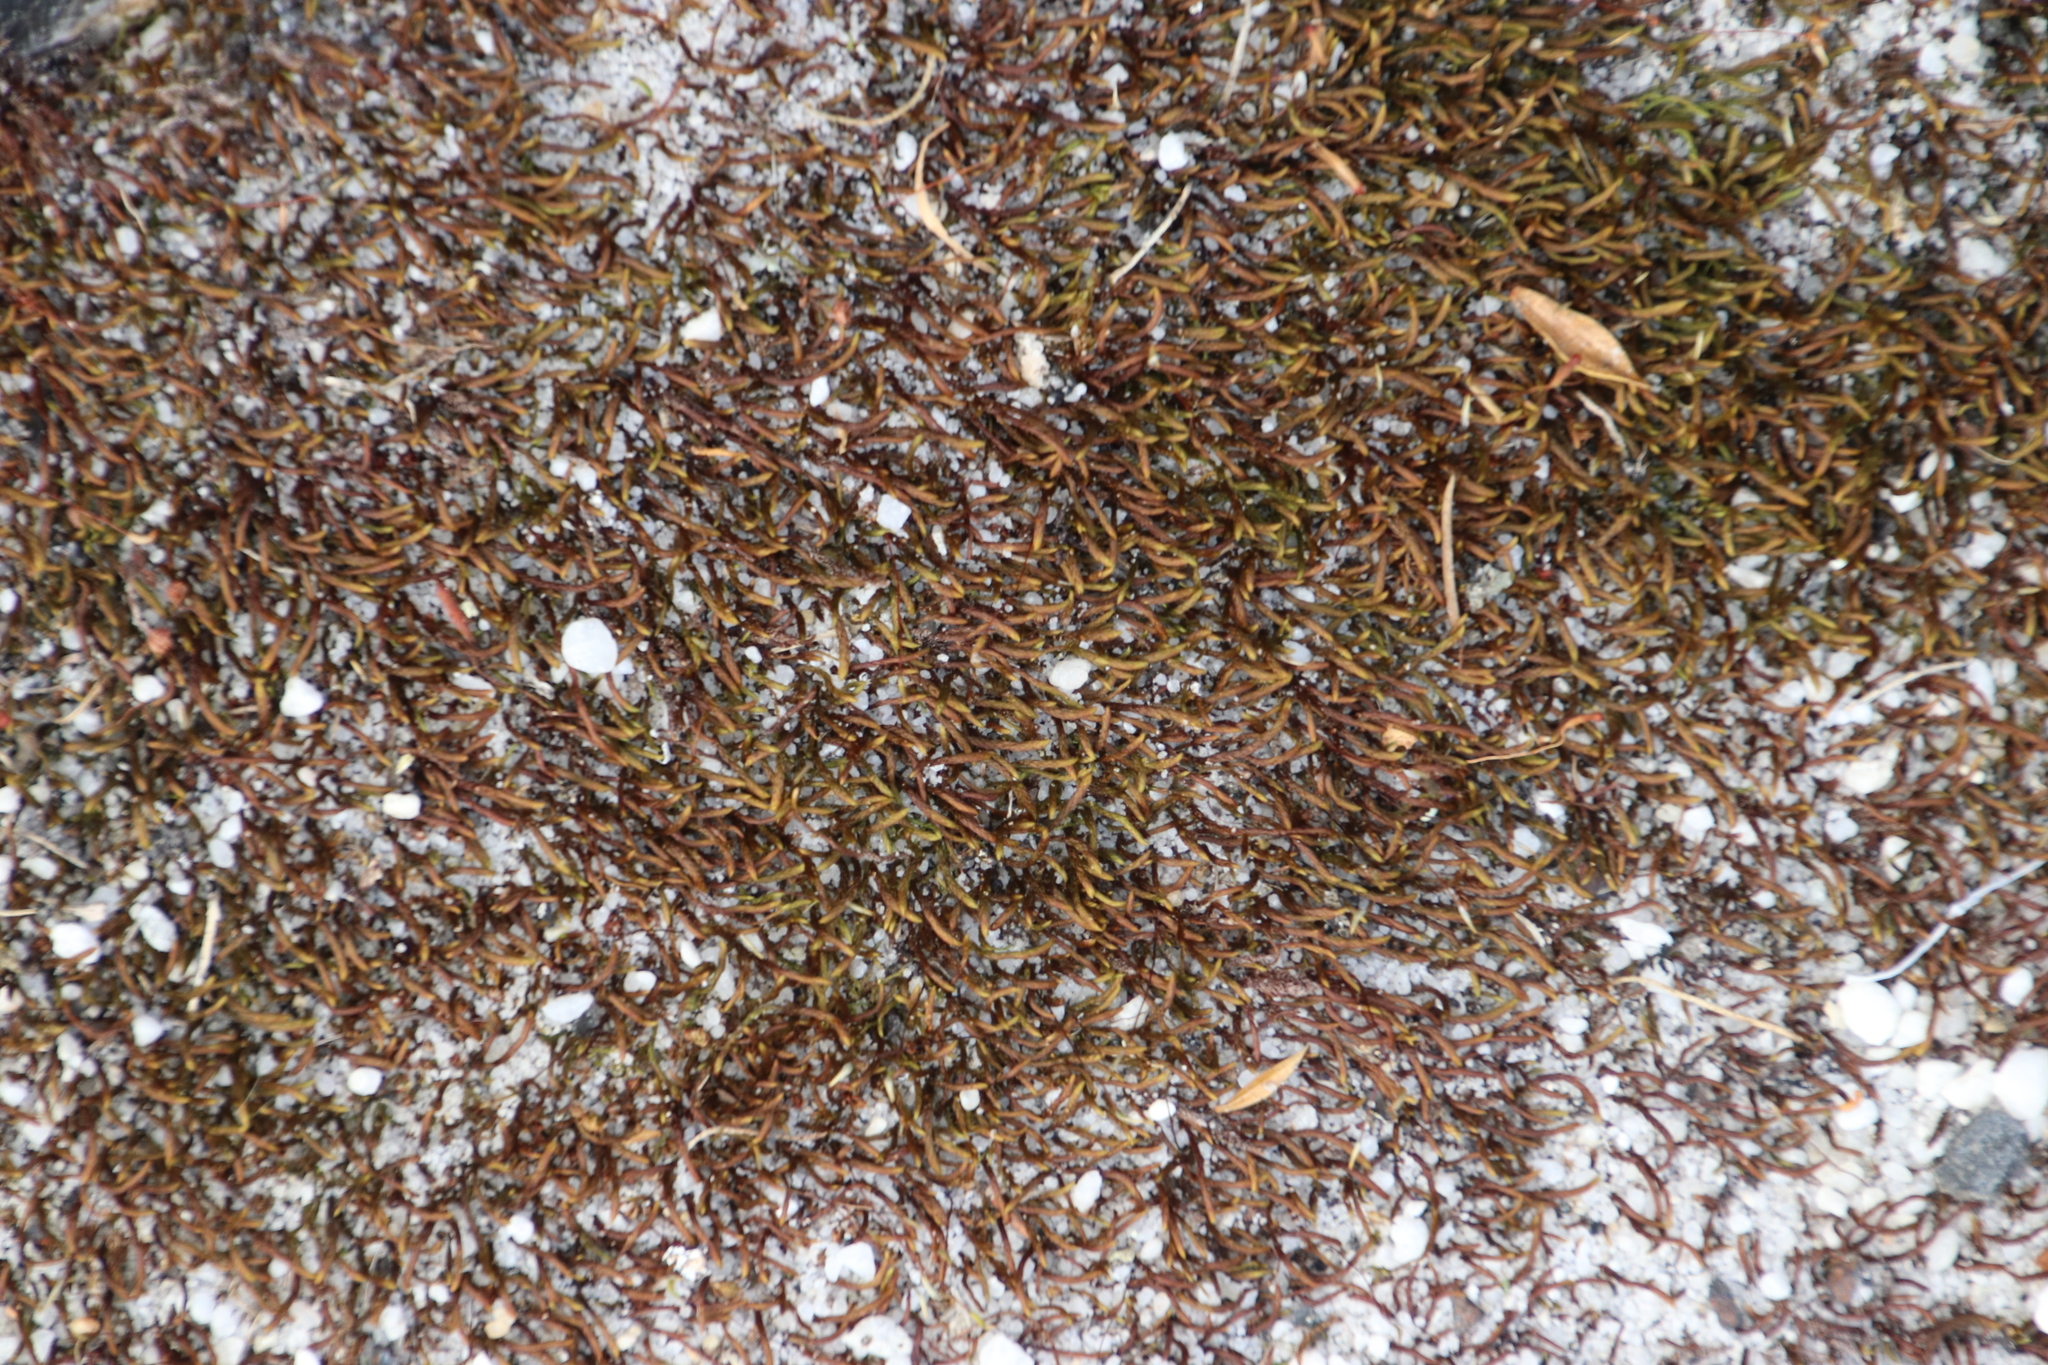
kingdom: Plantae
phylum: Bryophyta
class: Bryopsida
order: Hypnales
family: Leskeaceae
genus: Pseudoleskeopsis
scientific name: Pseudoleskeopsis claviramea
